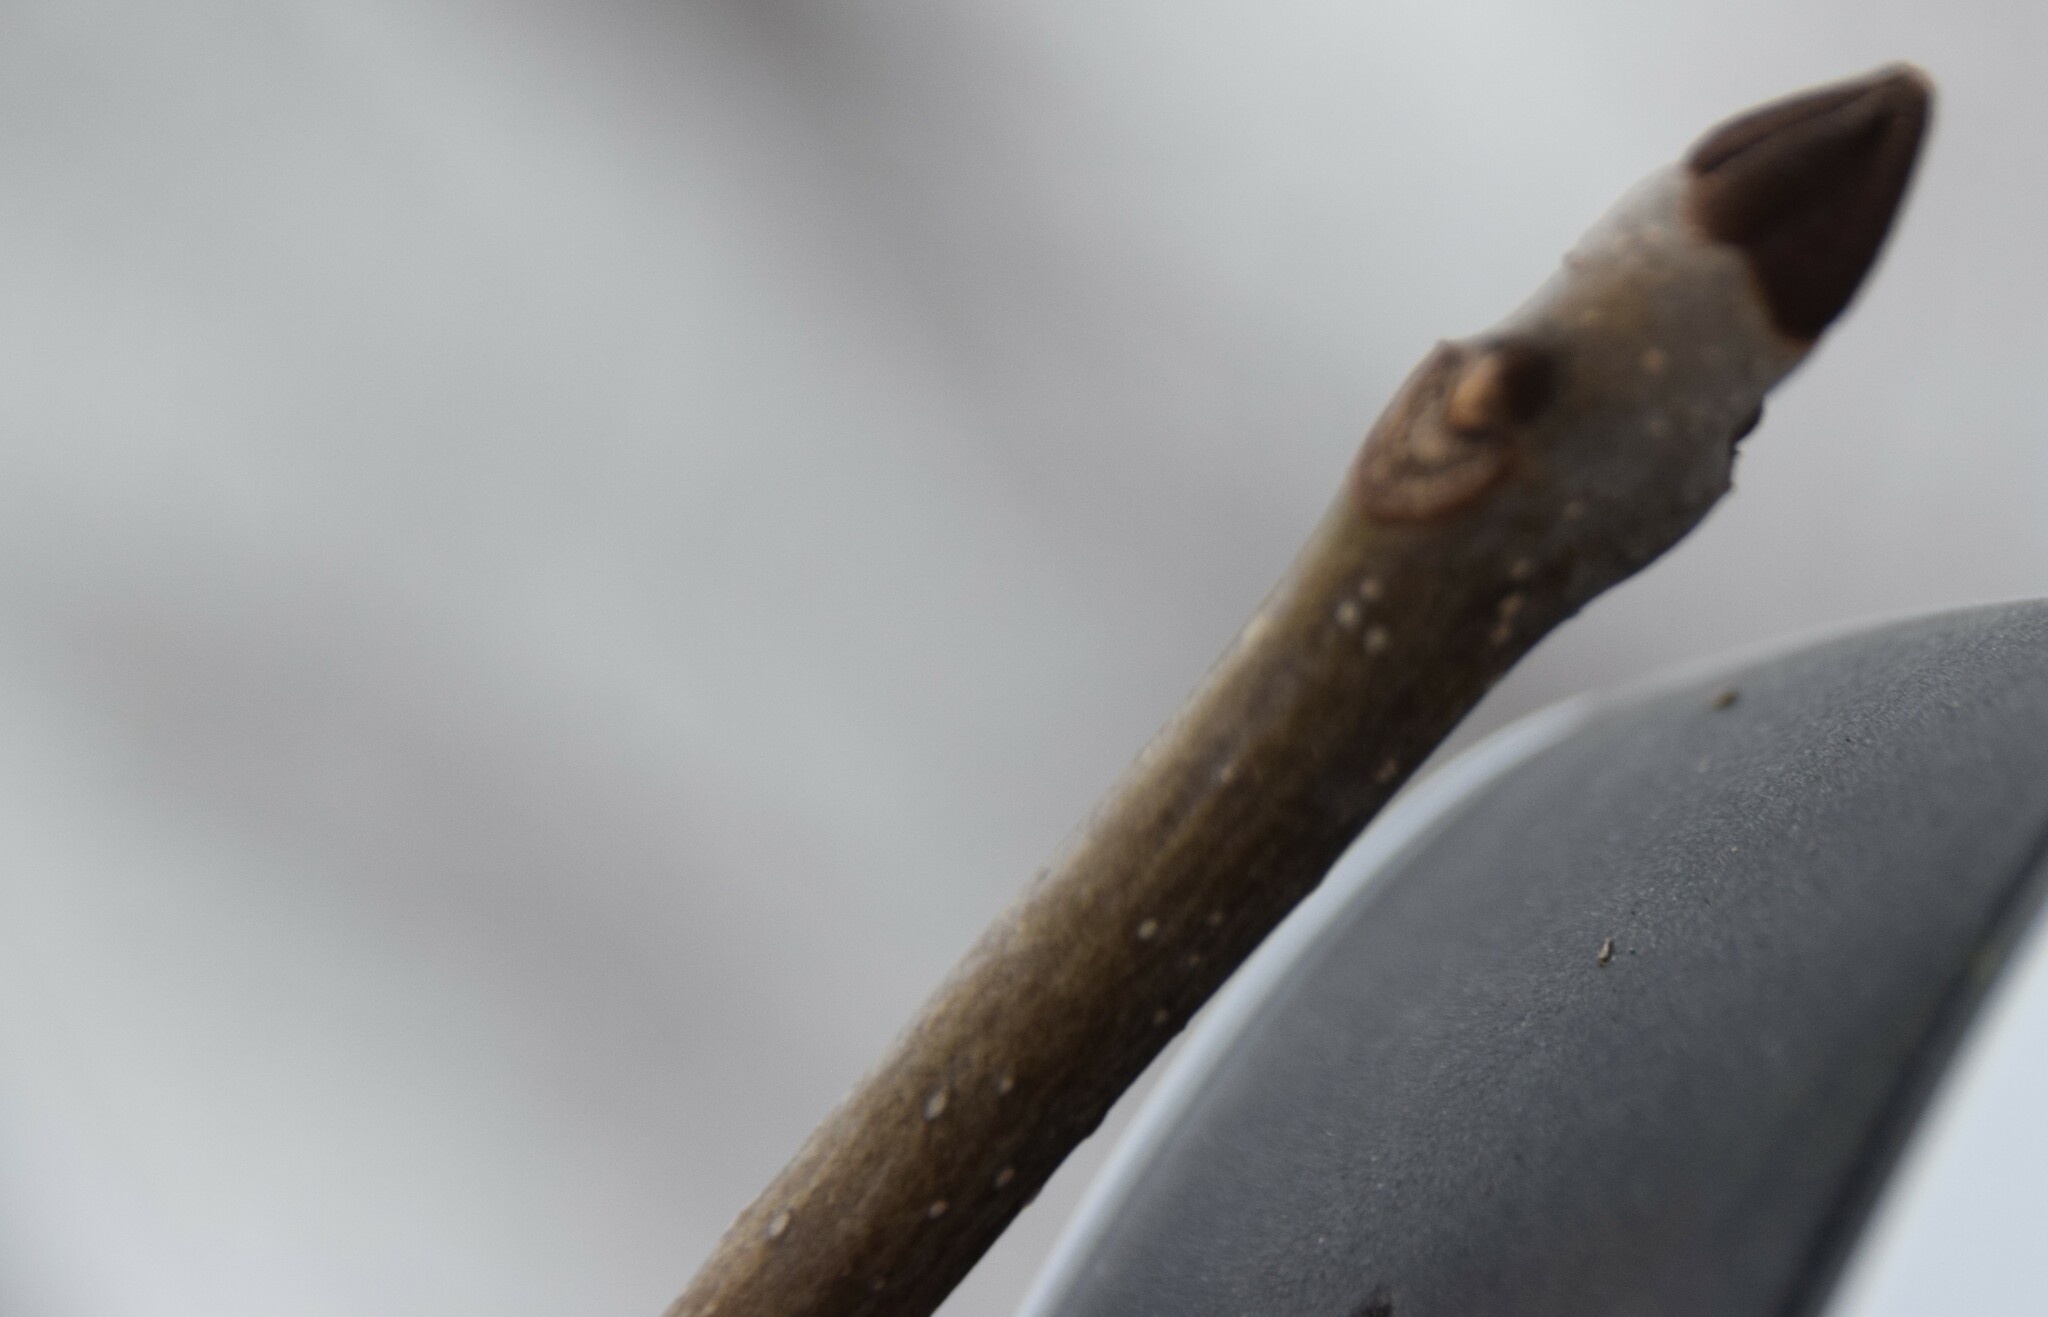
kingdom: Plantae
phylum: Tracheophyta
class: Magnoliopsida
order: Lamiales
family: Oleaceae
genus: Fraxinus
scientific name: Fraxinus nigra
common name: Black ash
